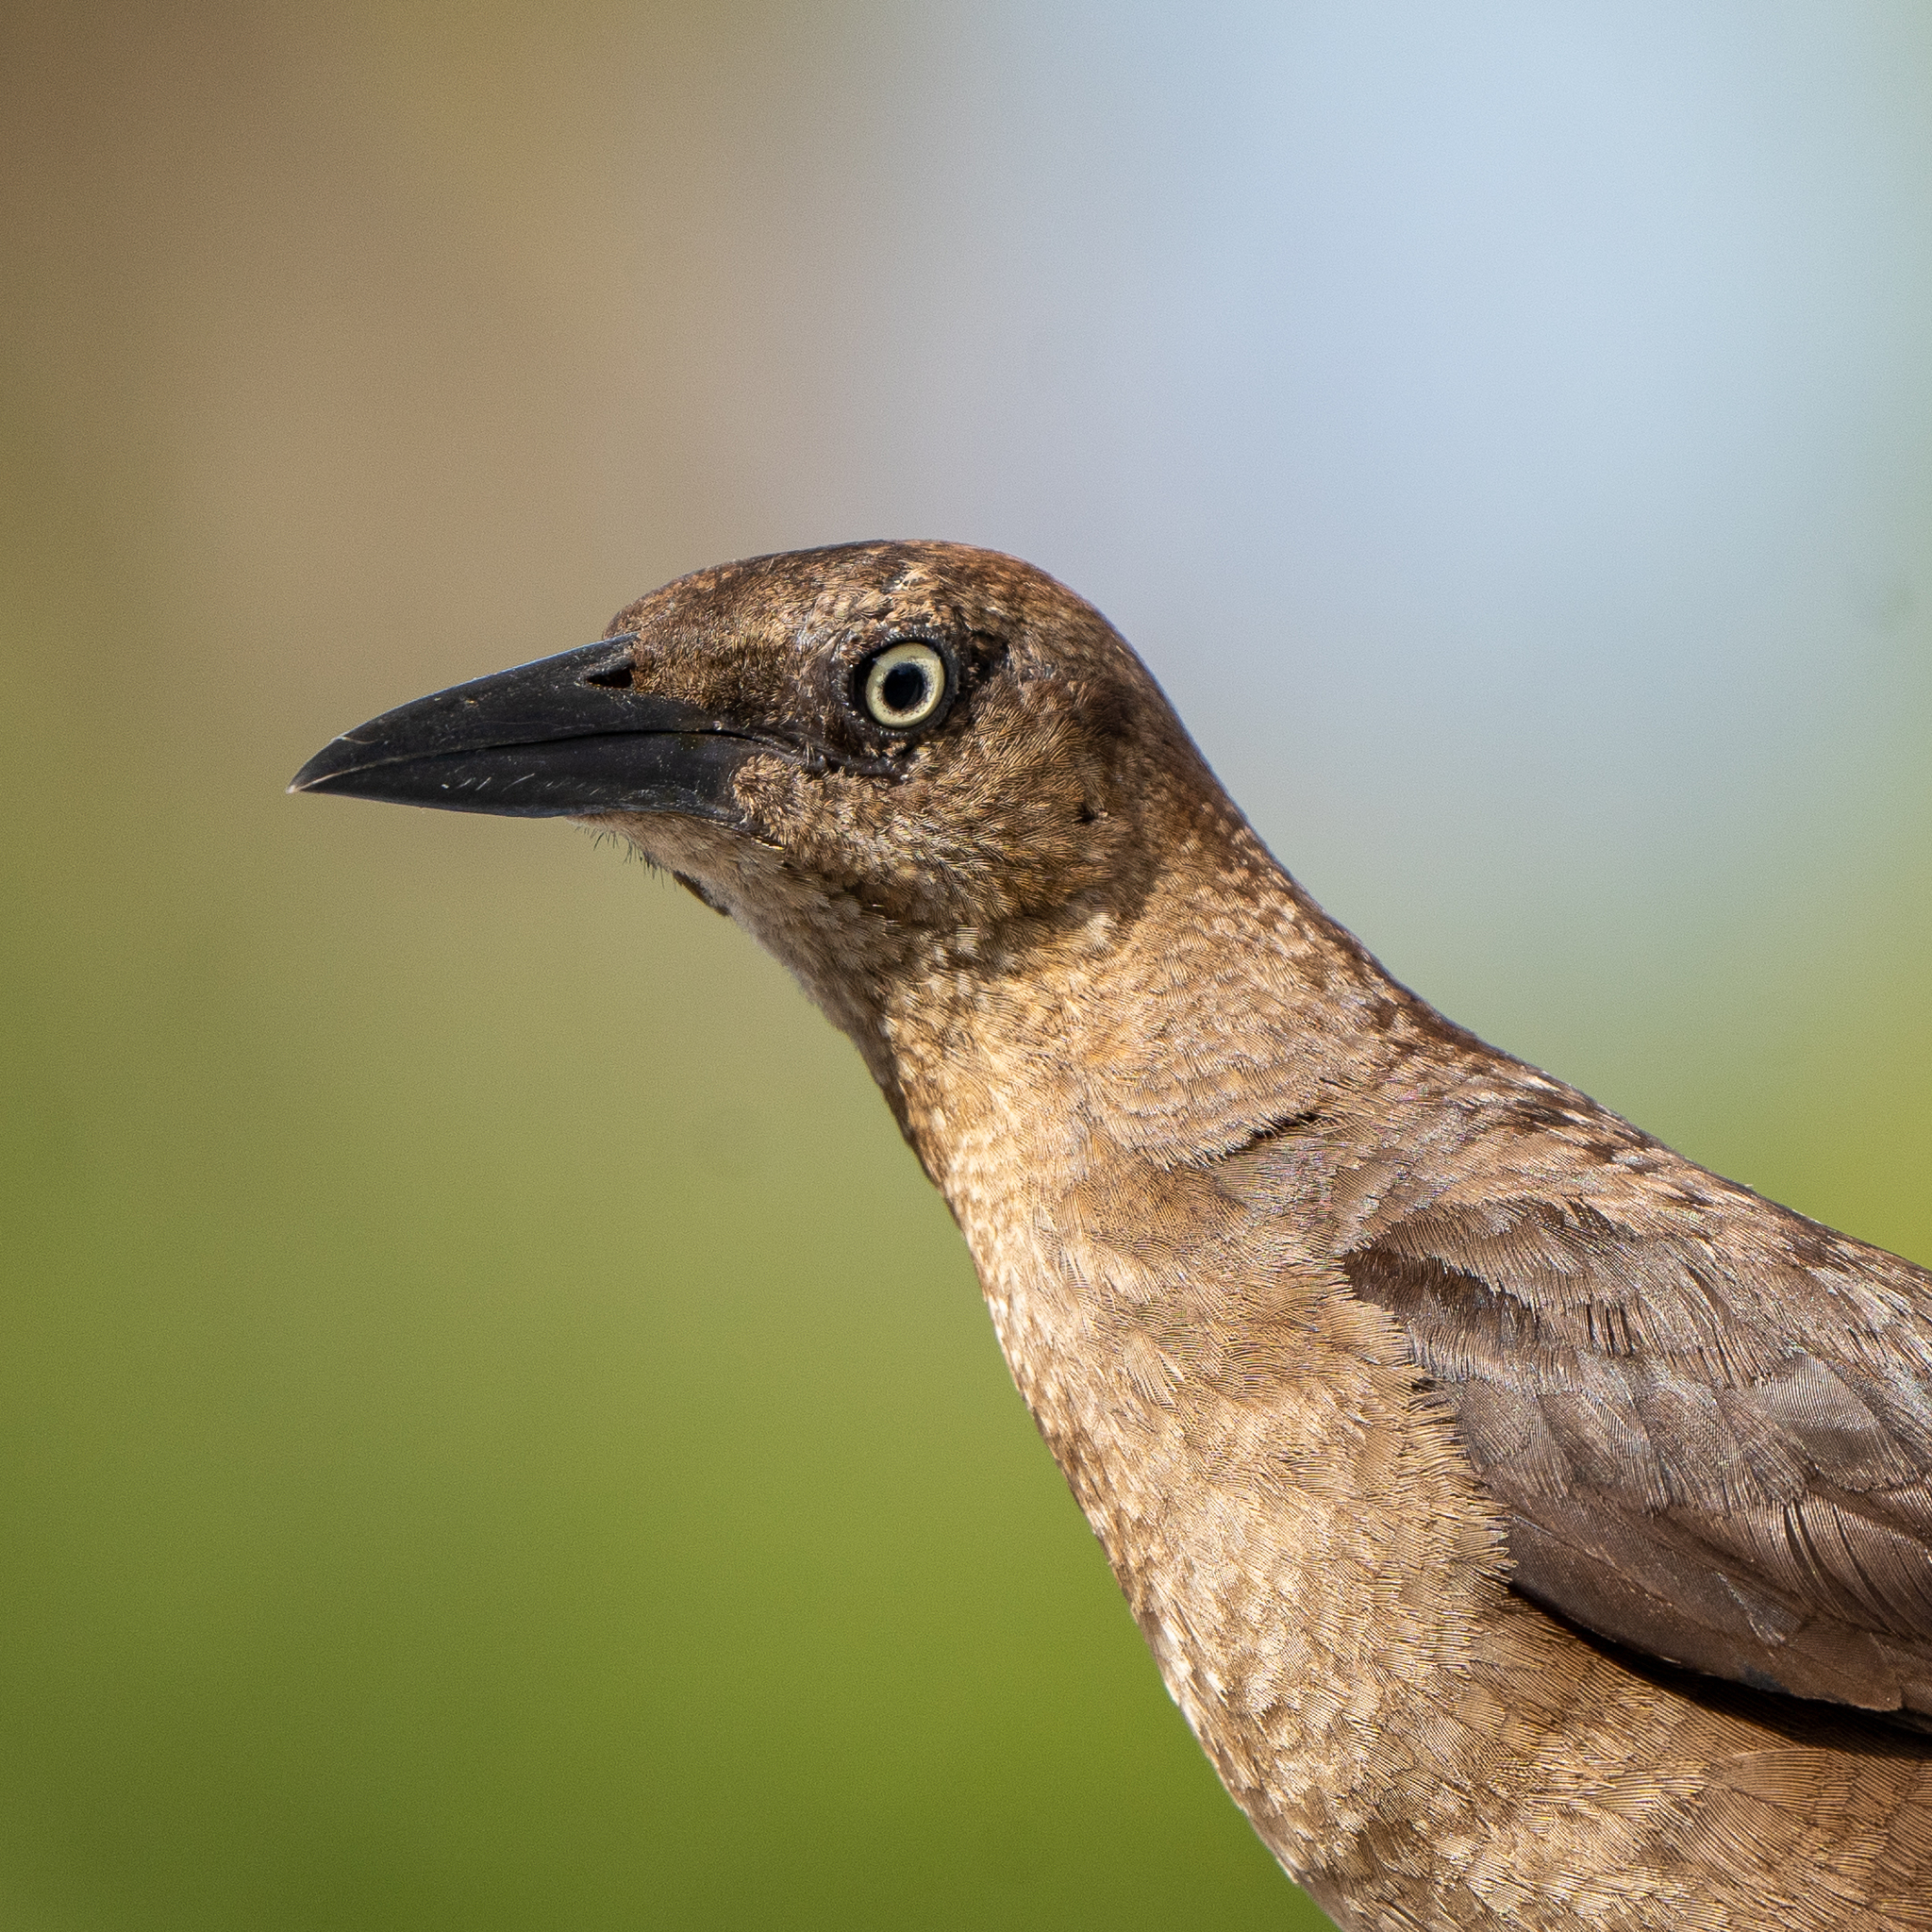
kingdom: Animalia
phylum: Chordata
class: Aves
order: Passeriformes
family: Icteridae
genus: Quiscalus
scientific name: Quiscalus mexicanus
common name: Great-tailed grackle
